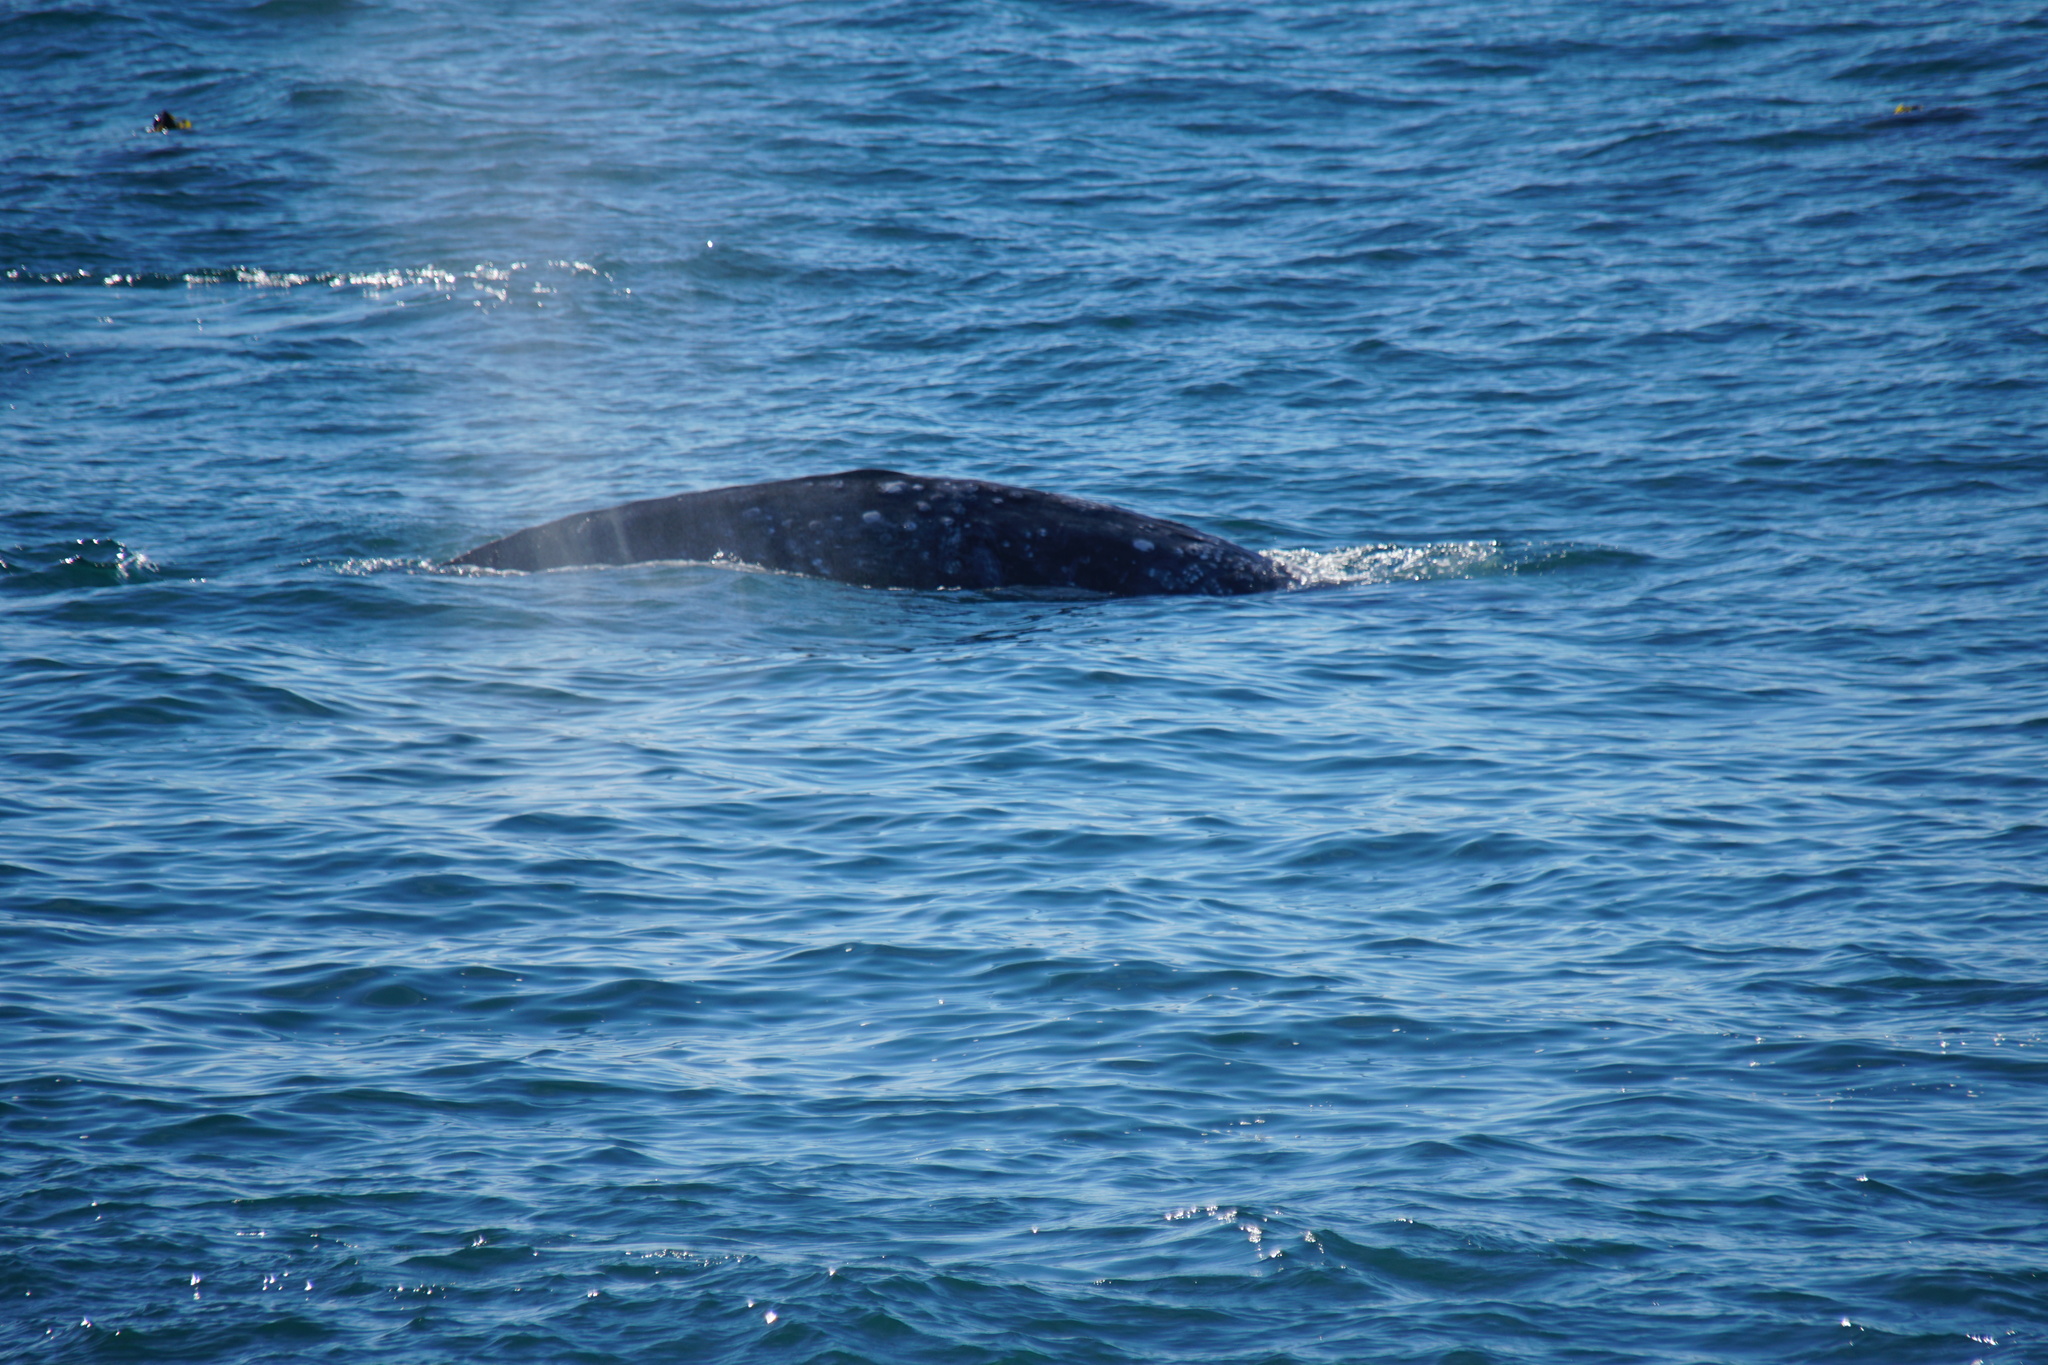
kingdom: Animalia
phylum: Chordata
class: Mammalia
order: Cetacea
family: Eschrichtiidae
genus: Eschrichtius
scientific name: Eschrichtius robustus
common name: Gray whale
